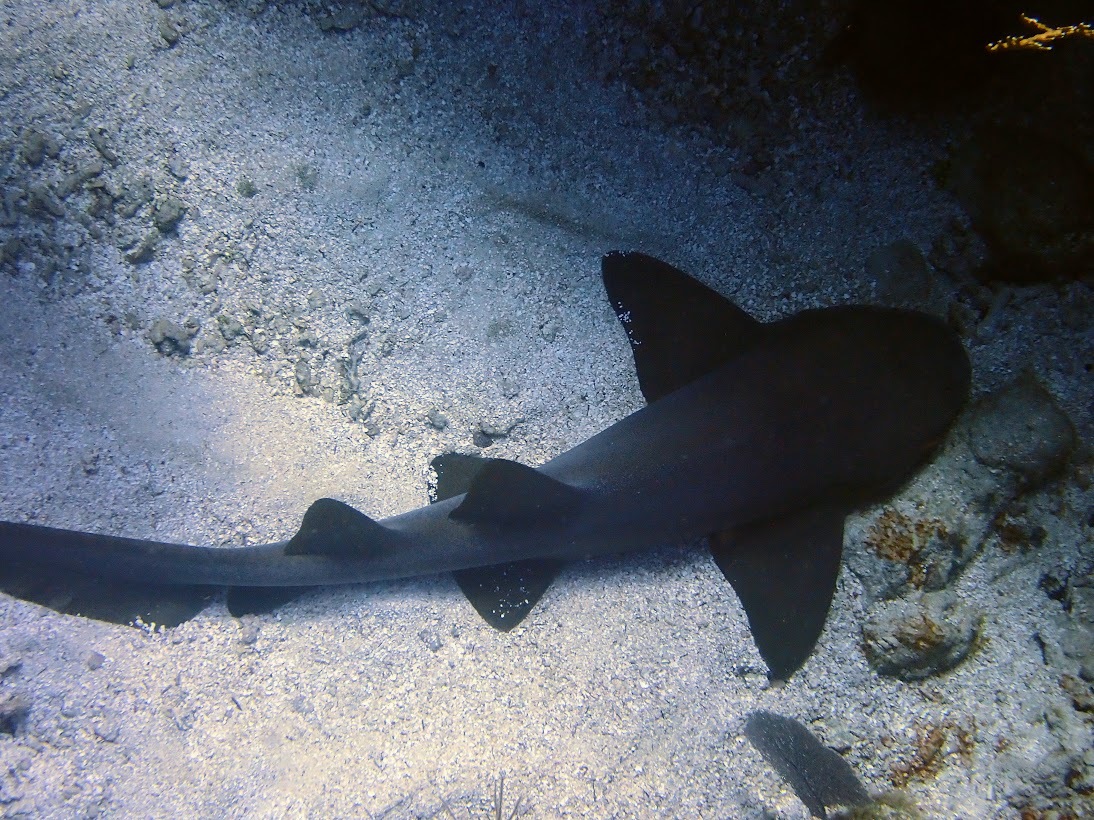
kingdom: Animalia
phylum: Chordata
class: Elasmobranchii
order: Orectolobiformes
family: Ginglymostomatidae
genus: Ginglymostoma
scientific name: Ginglymostoma cirratum
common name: Nurse shark
